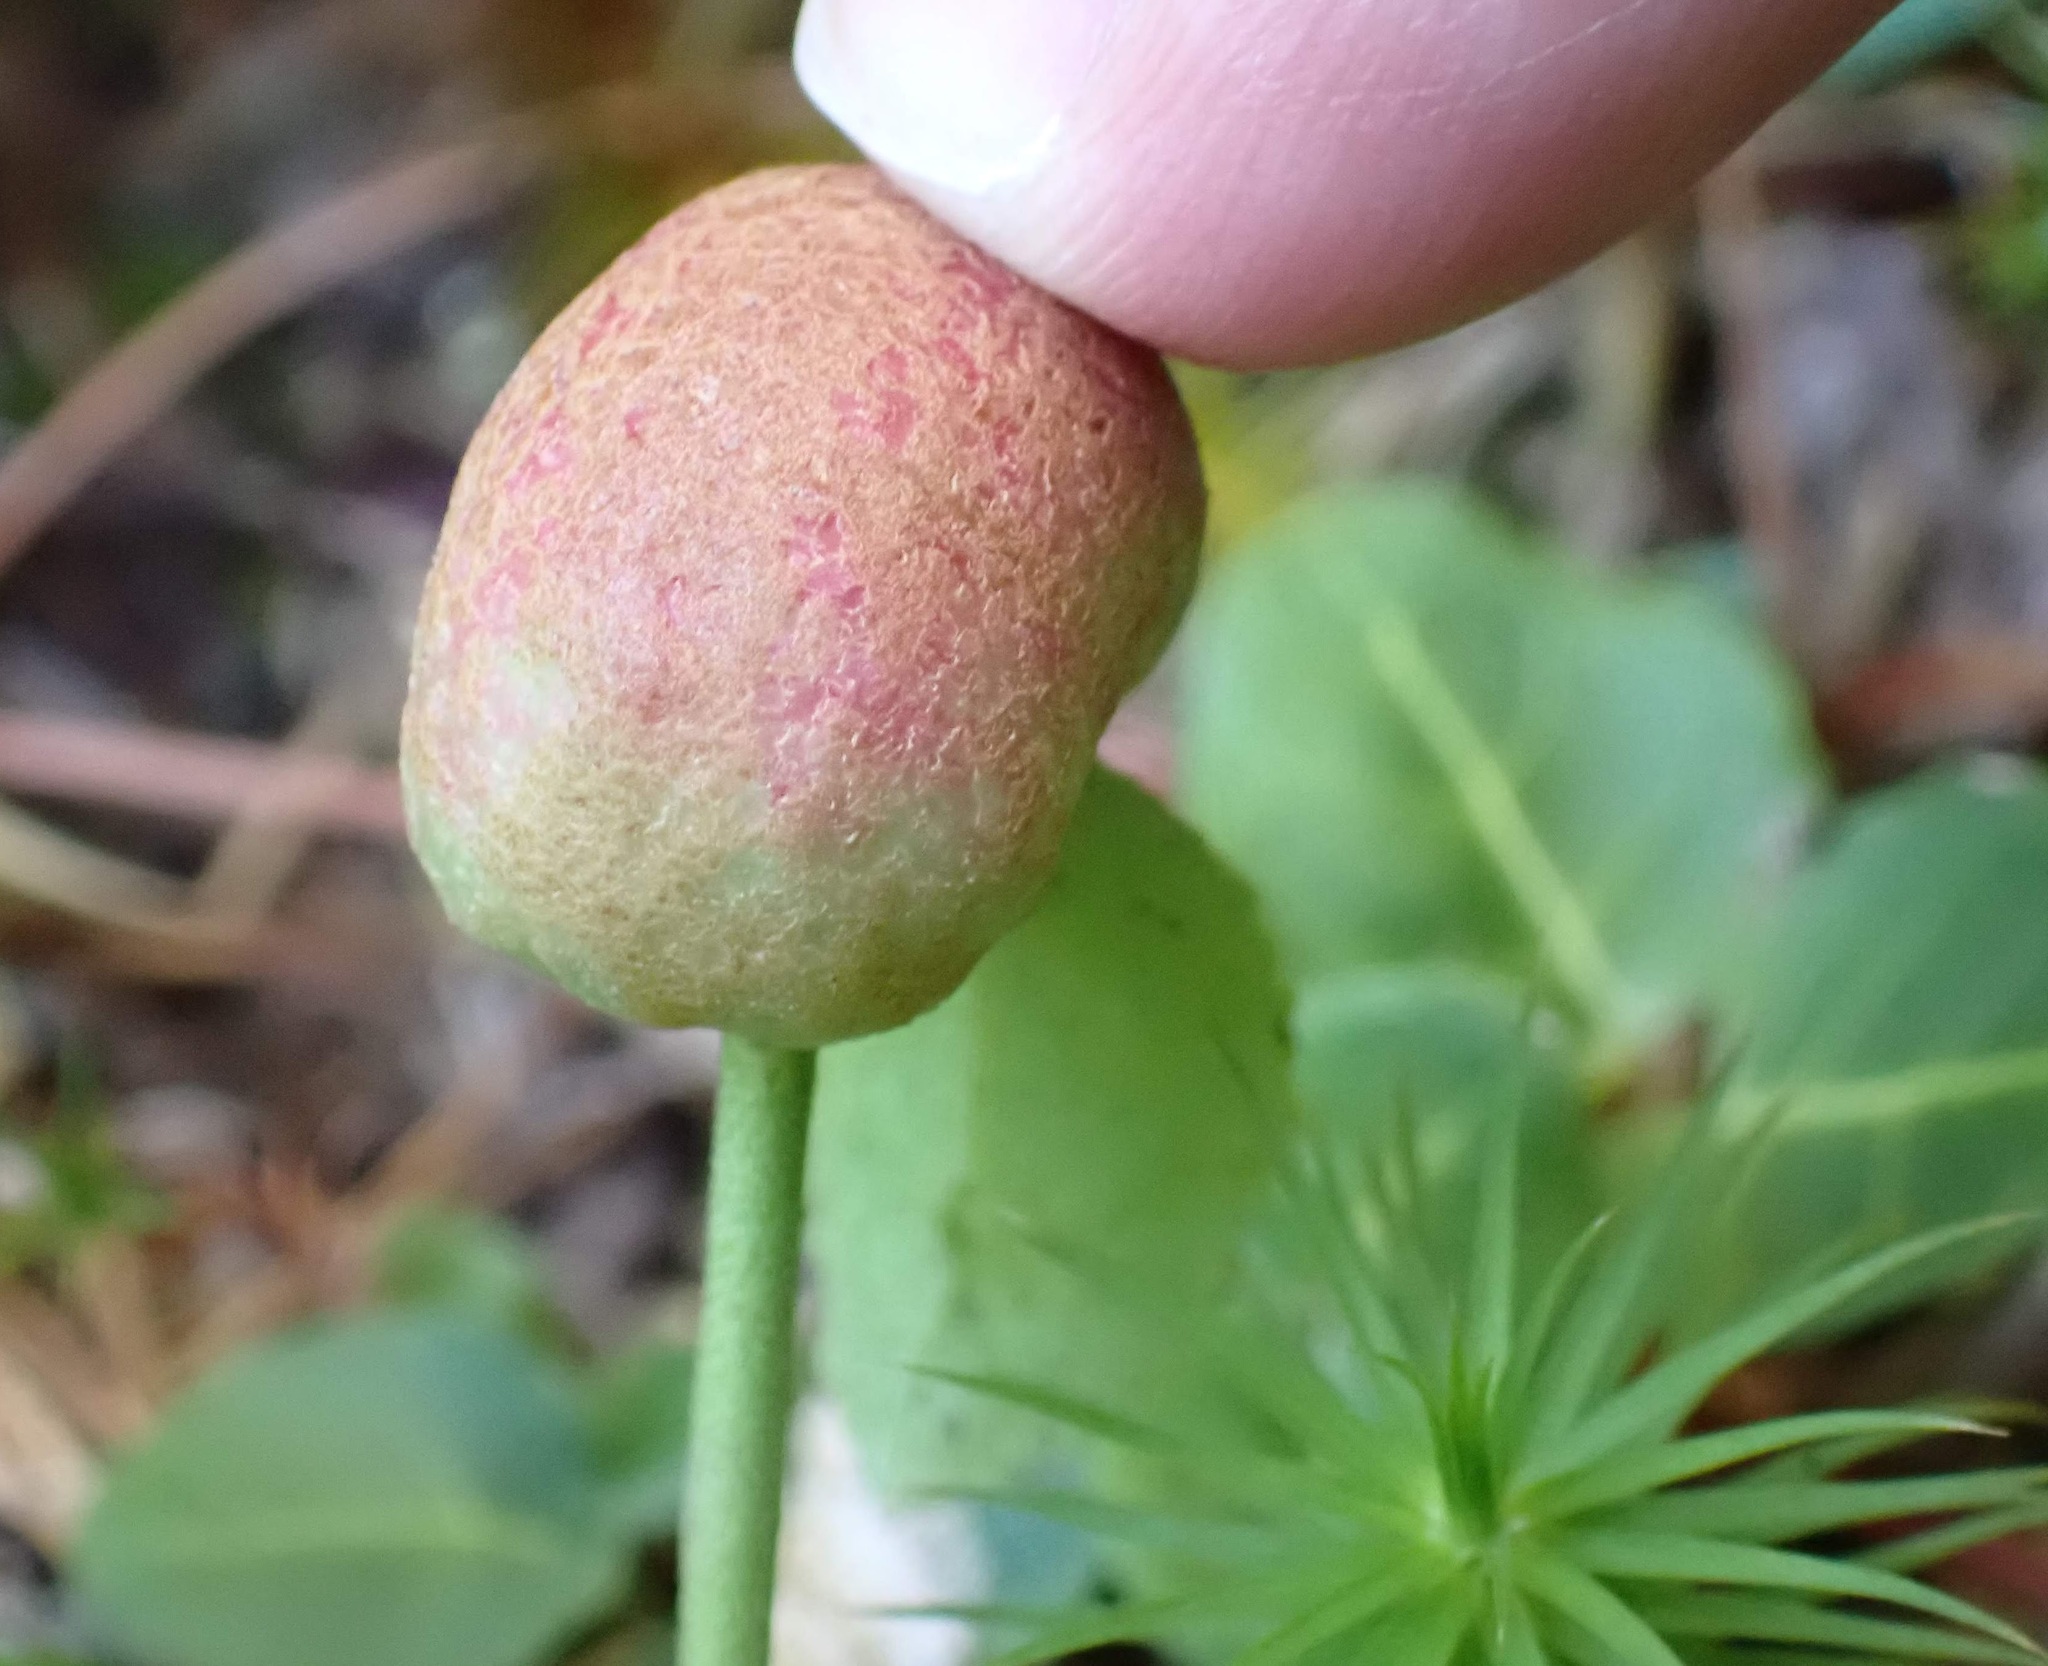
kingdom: Animalia
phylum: Arthropoda
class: Insecta
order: Hymenoptera
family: Pteromalidae
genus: Hemadas
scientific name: Hemadas nubilipennis
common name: Blueberry stem gall wasp
